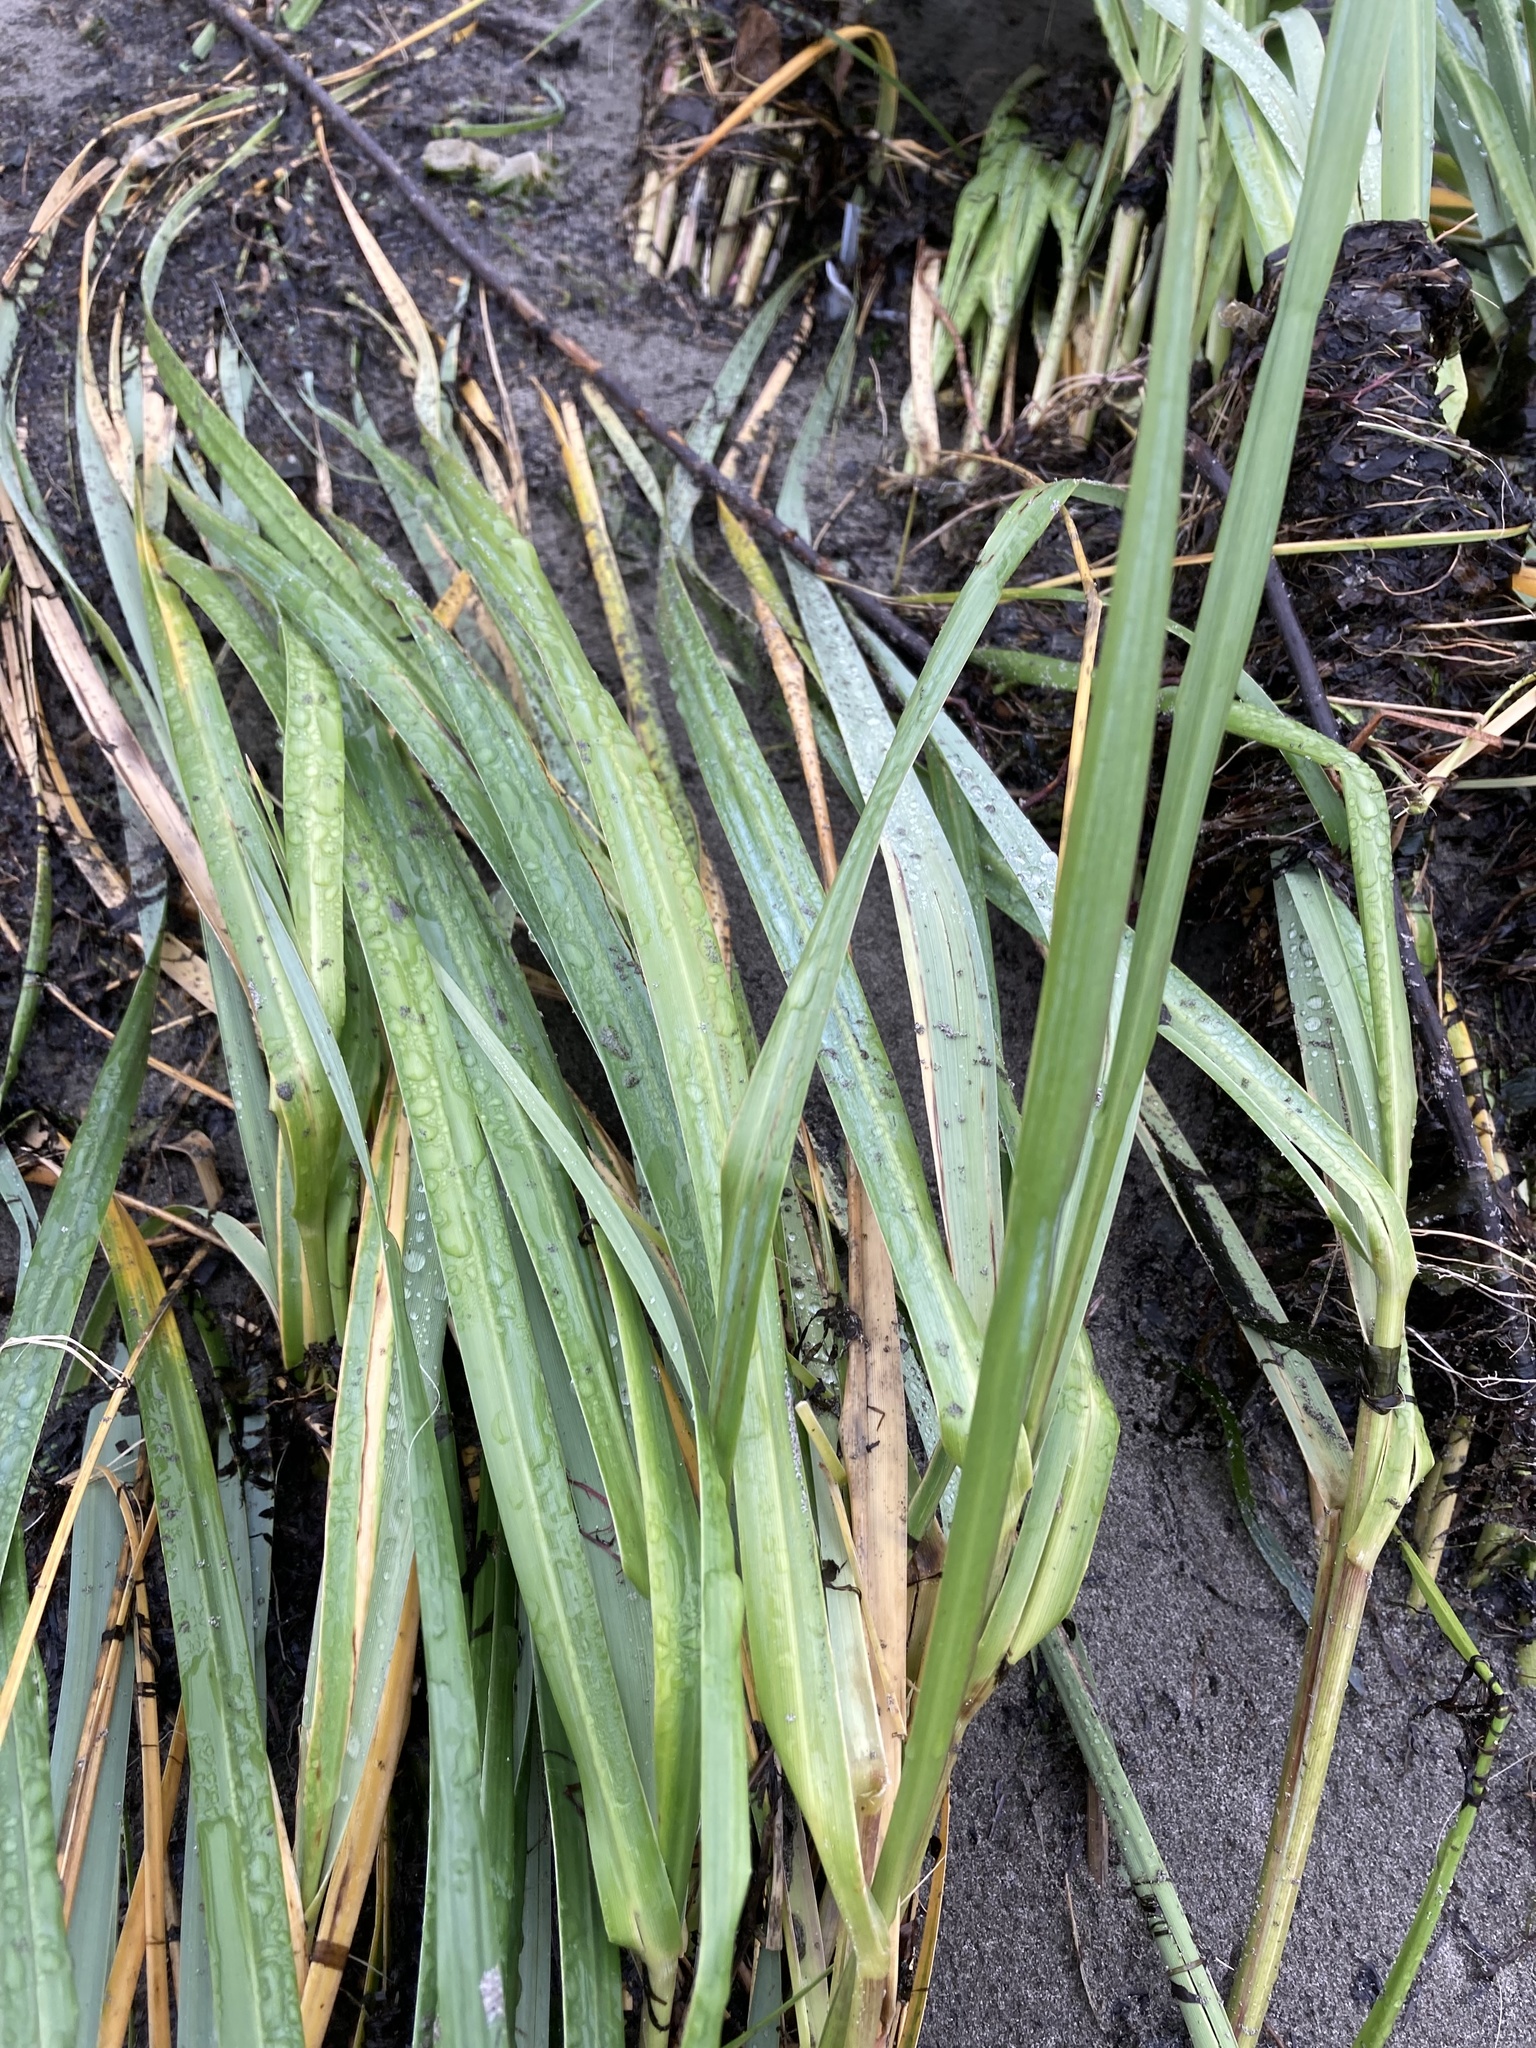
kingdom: Plantae
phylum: Tracheophyta
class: Liliopsida
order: Poales
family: Poaceae
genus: Leymus
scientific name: Leymus mollis
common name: American dune grass
